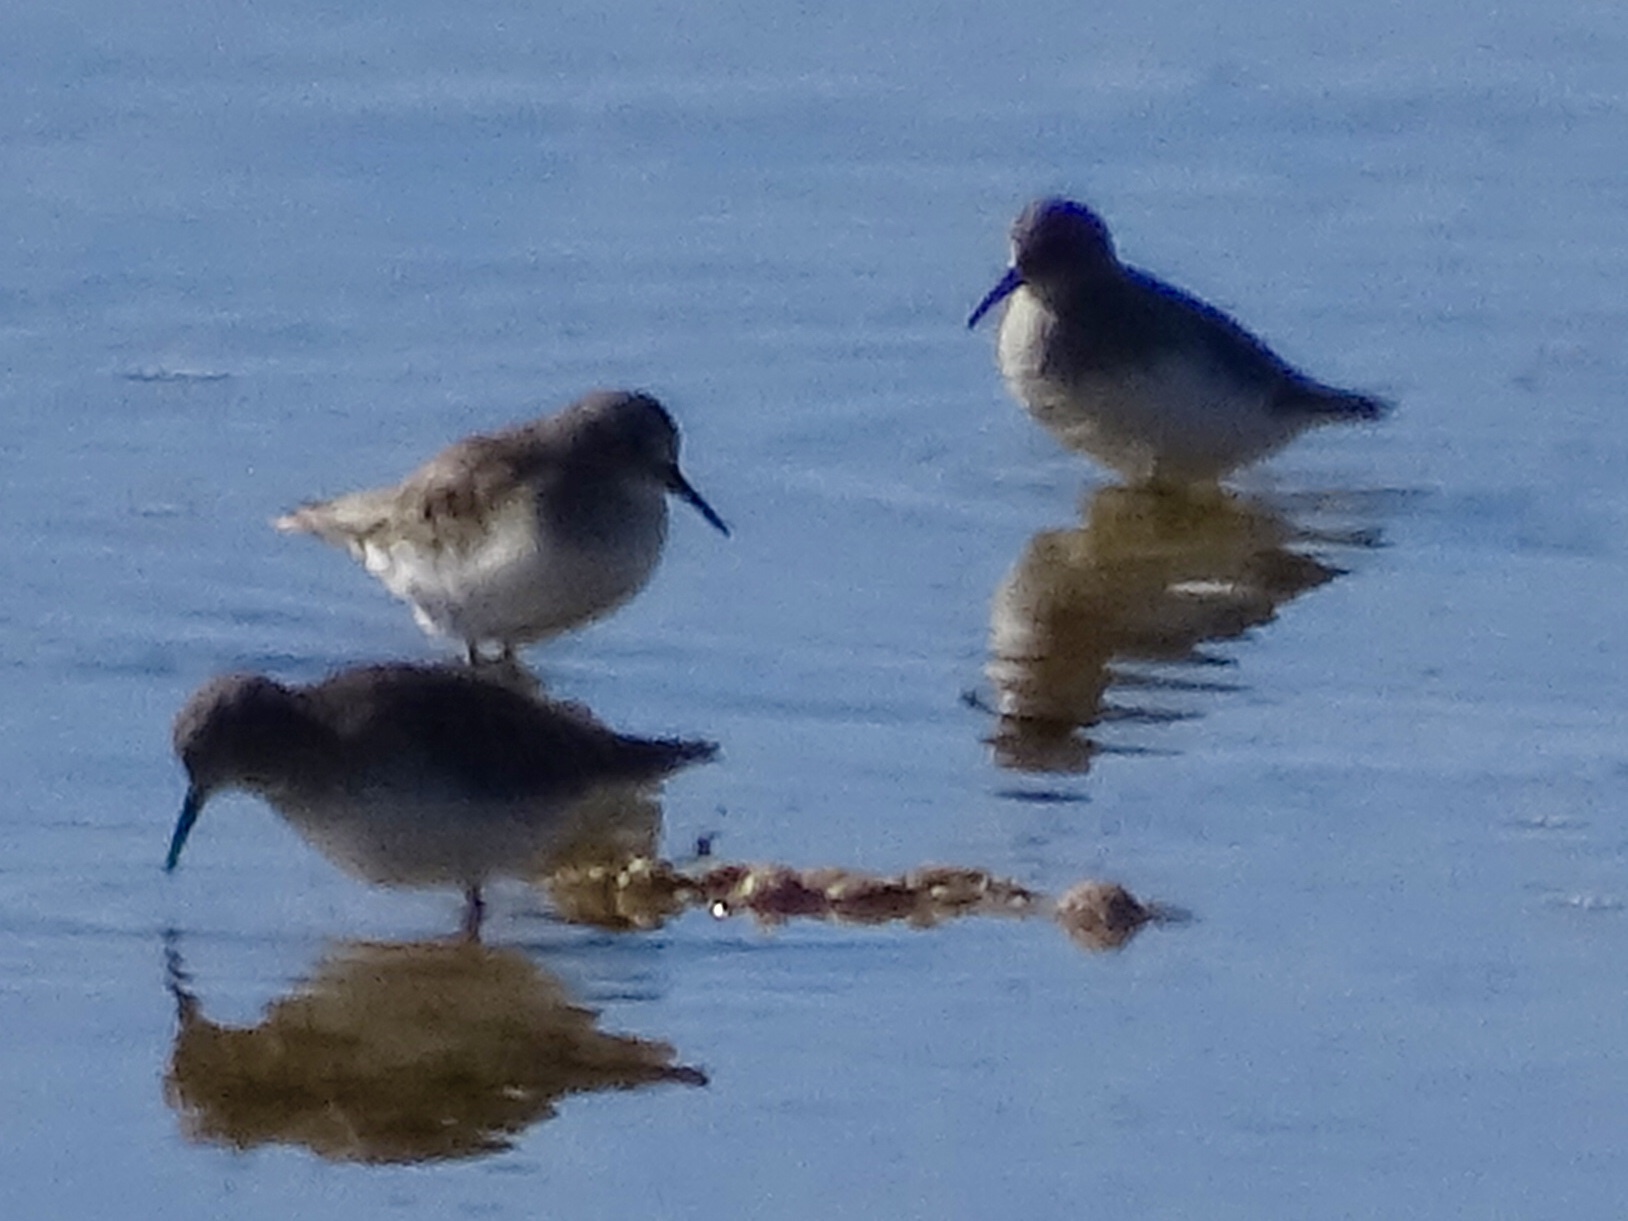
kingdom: Animalia
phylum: Chordata
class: Aves
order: Charadriiformes
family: Scolopacidae
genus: Calidris
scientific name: Calidris minutilla
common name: Least sandpiper
